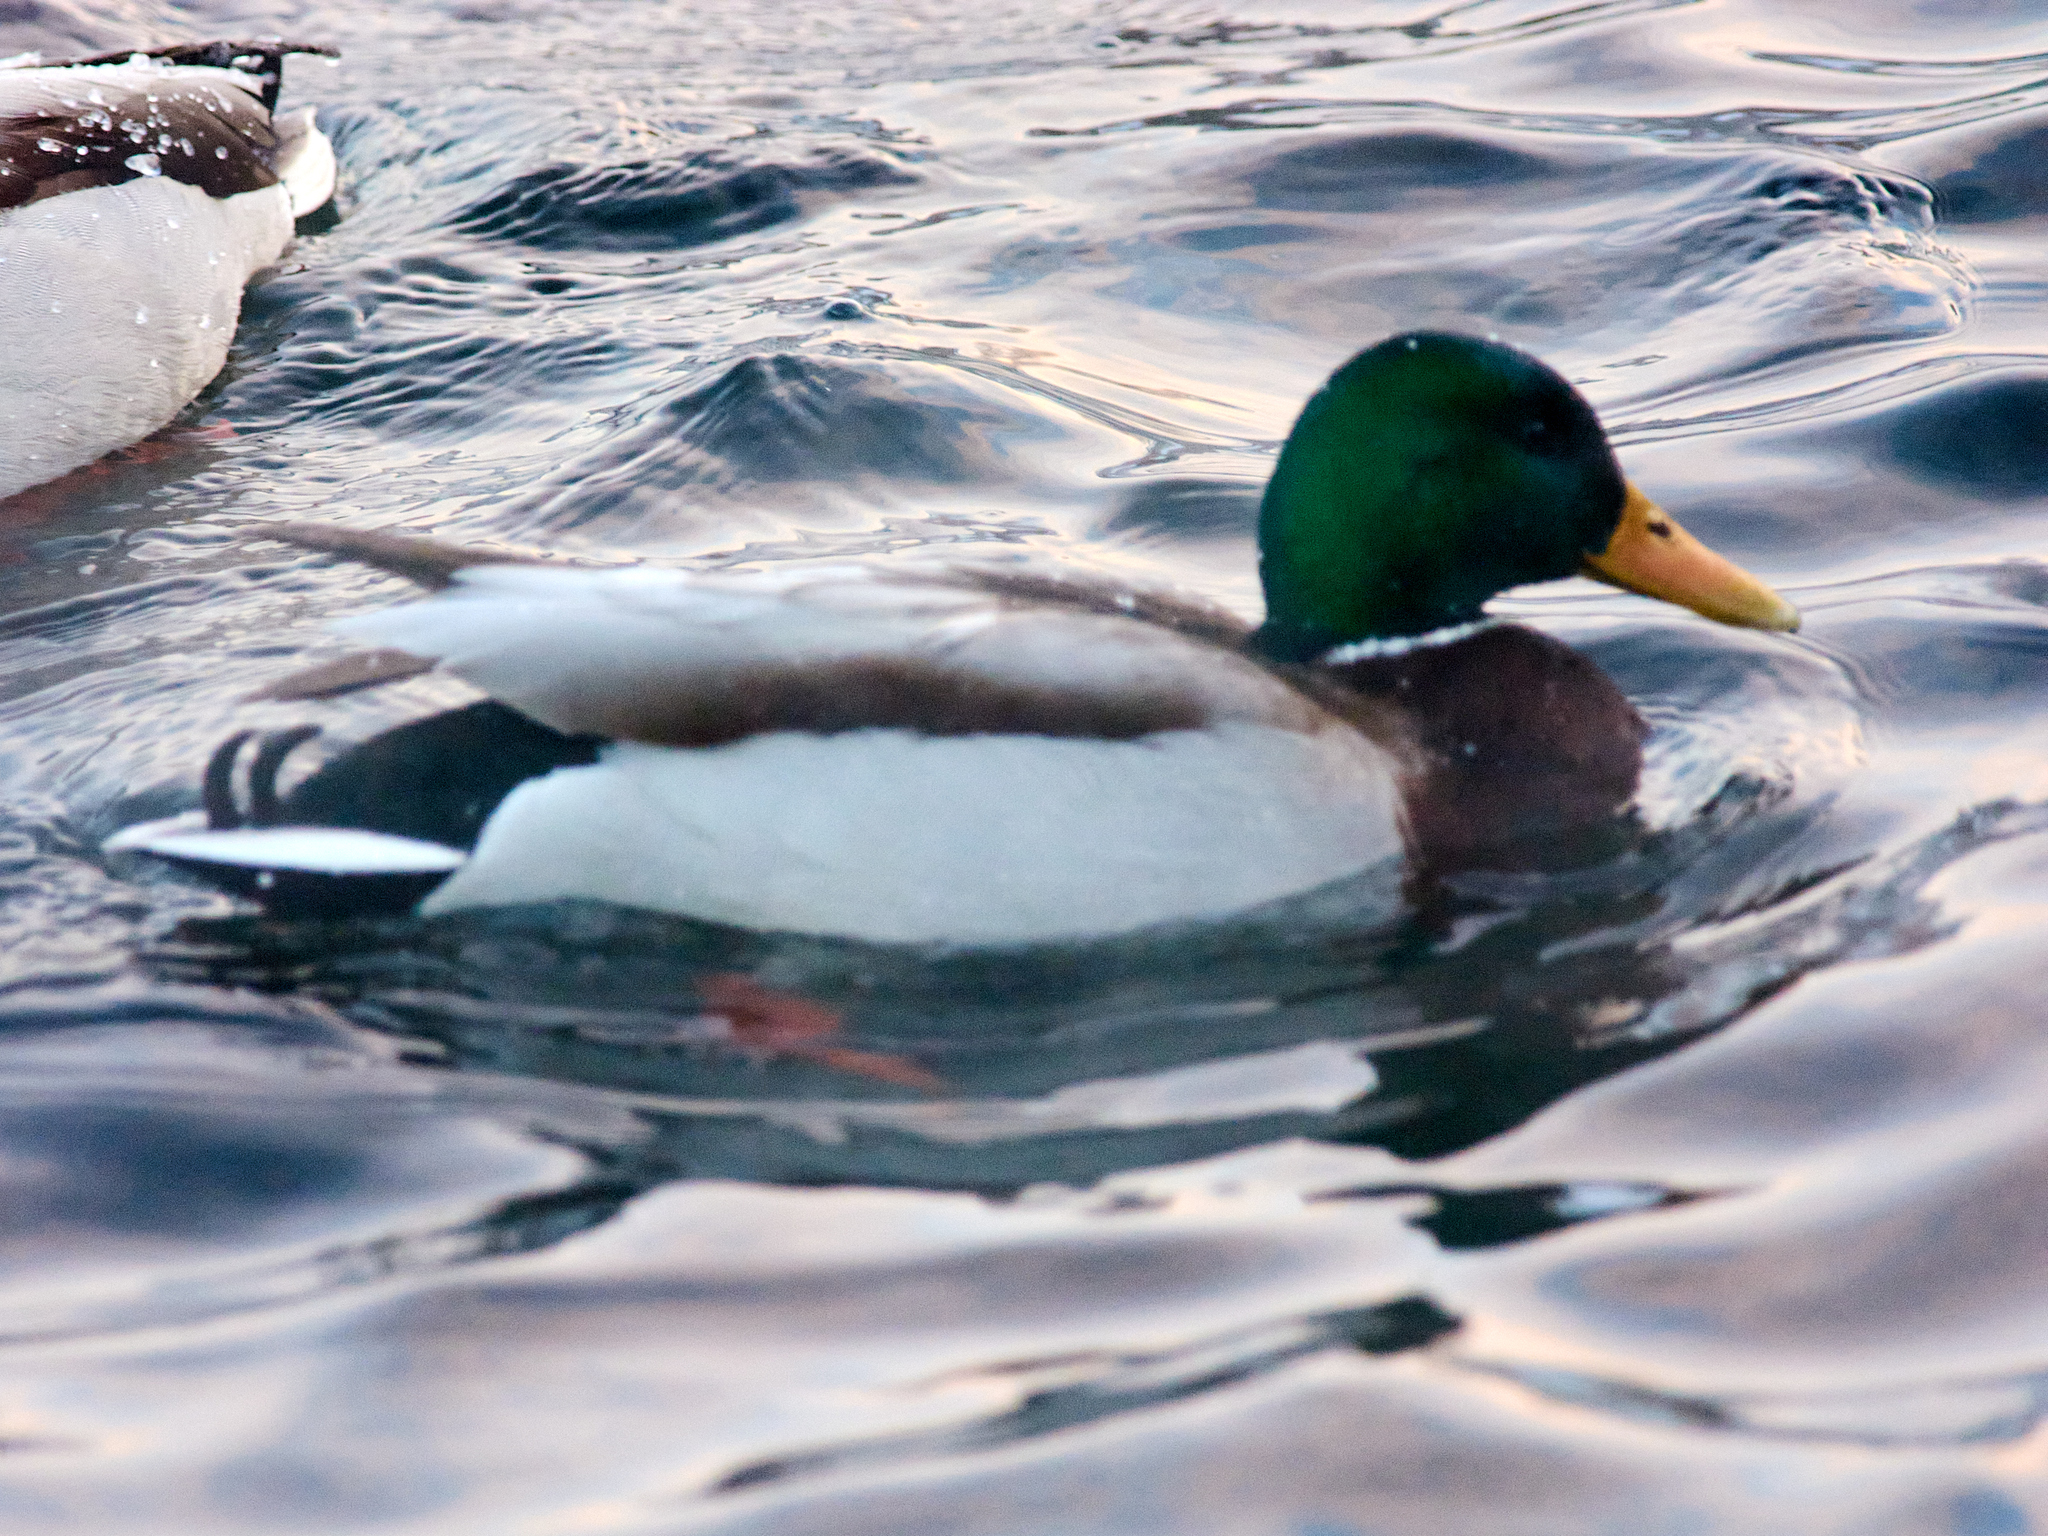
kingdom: Animalia
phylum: Chordata
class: Aves
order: Anseriformes
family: Anatidae
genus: Anas
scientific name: Anas platyrhynchos
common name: Mallard
